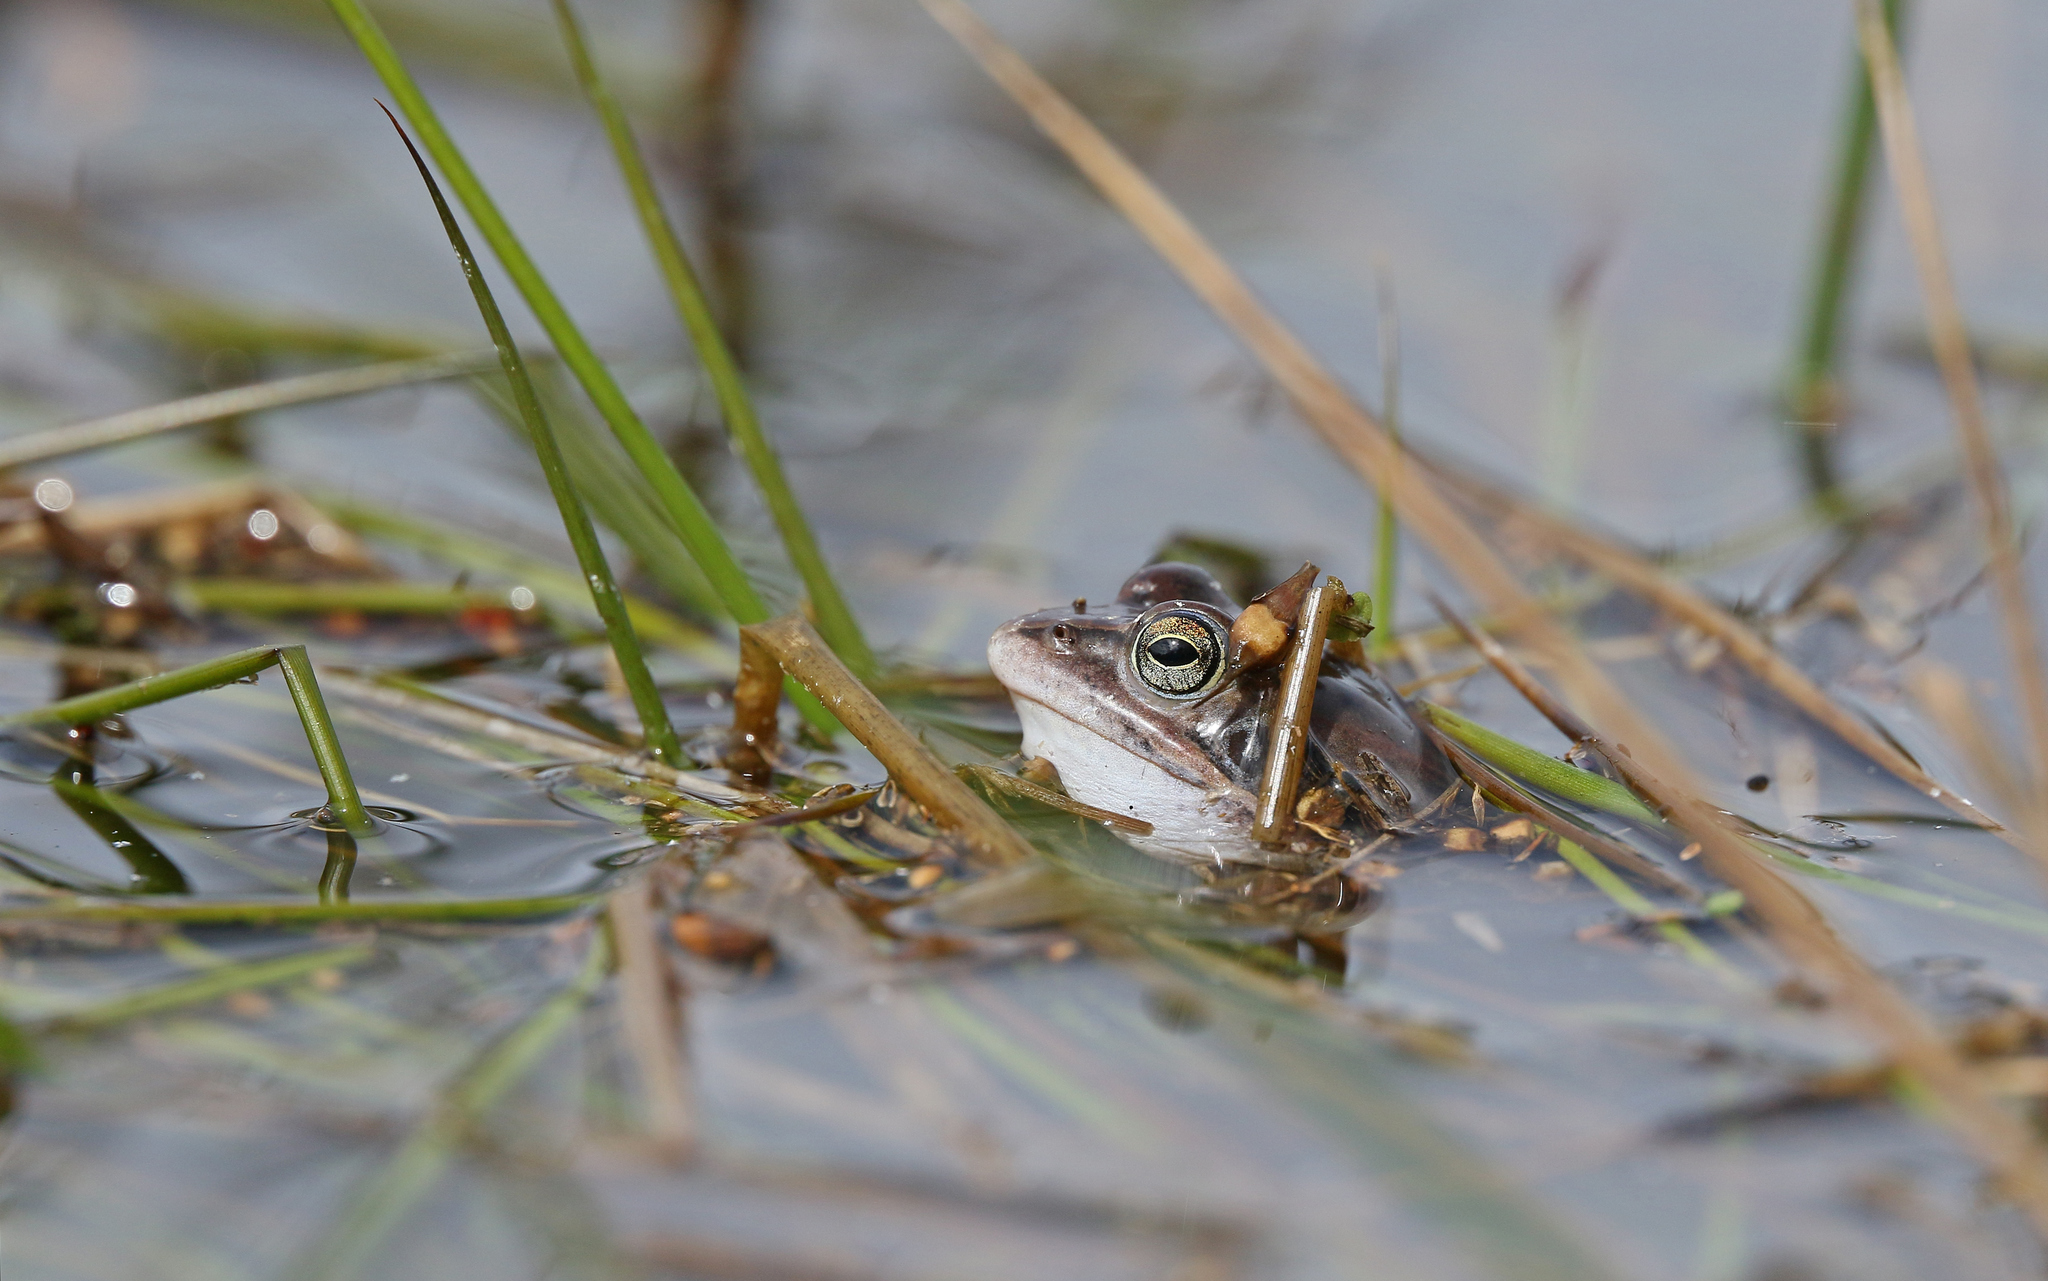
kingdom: Animalia
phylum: Chordata
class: Amphibia
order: Anura
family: Ranidae
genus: Rana
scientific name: Rana arvalis
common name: Moor frog
